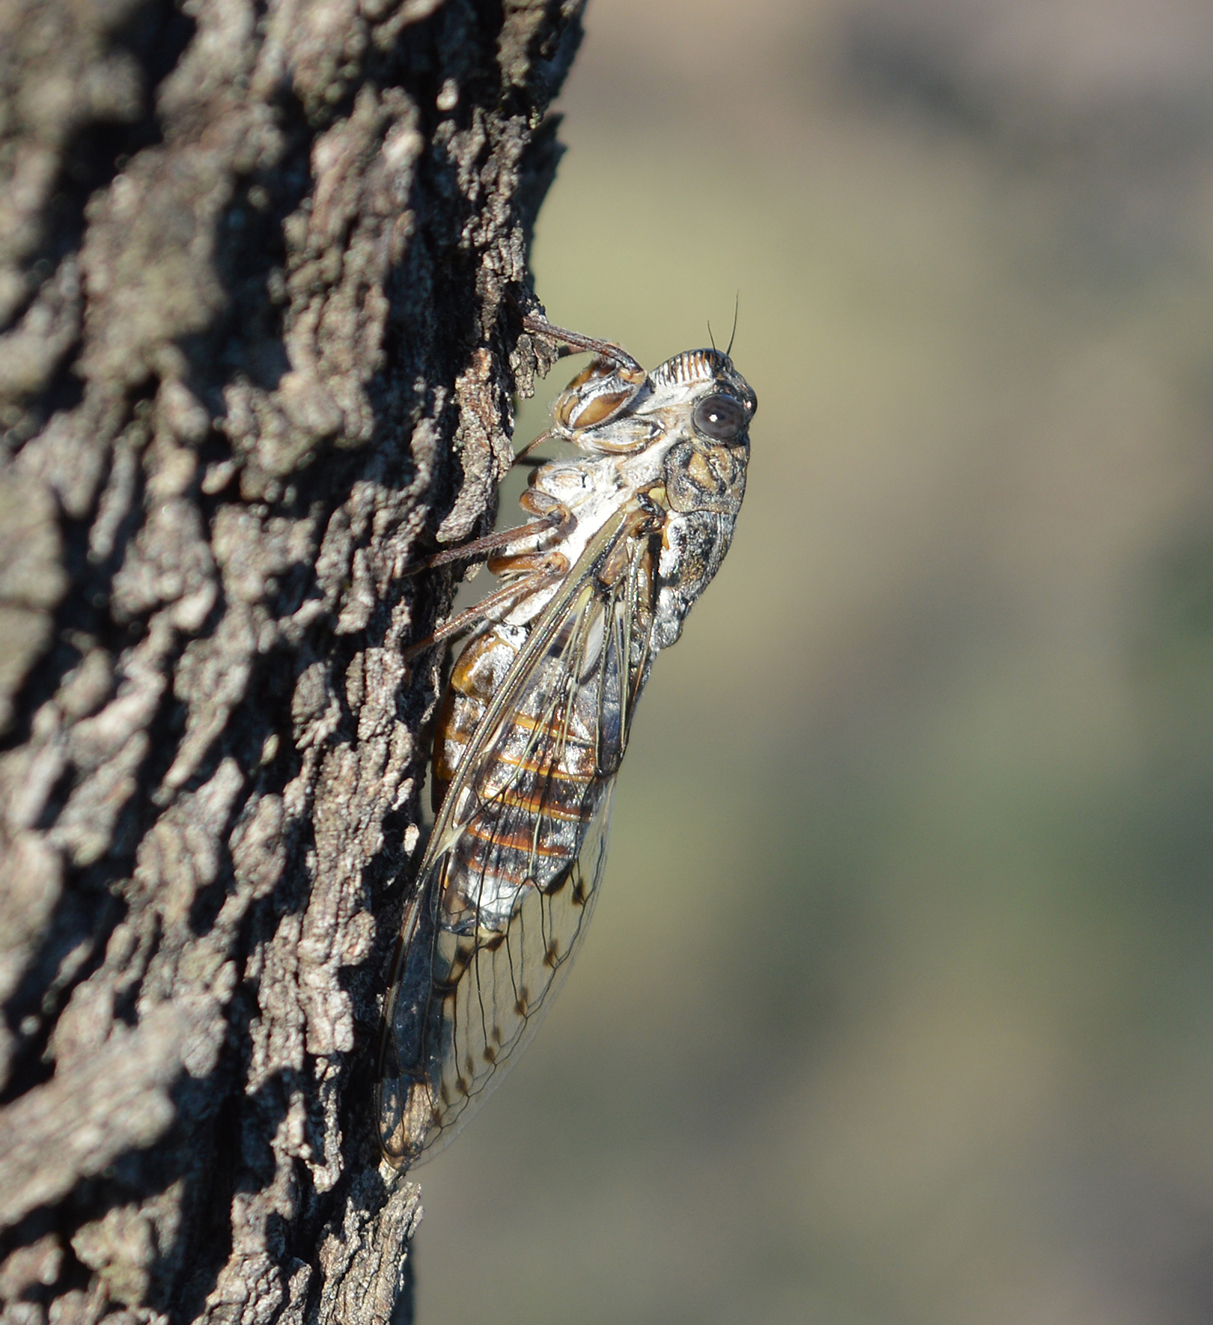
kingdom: Animalia
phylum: Arthropoda
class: Insecta
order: Hemiptera
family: Cicadidae
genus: Cicada
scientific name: Cicada orni
